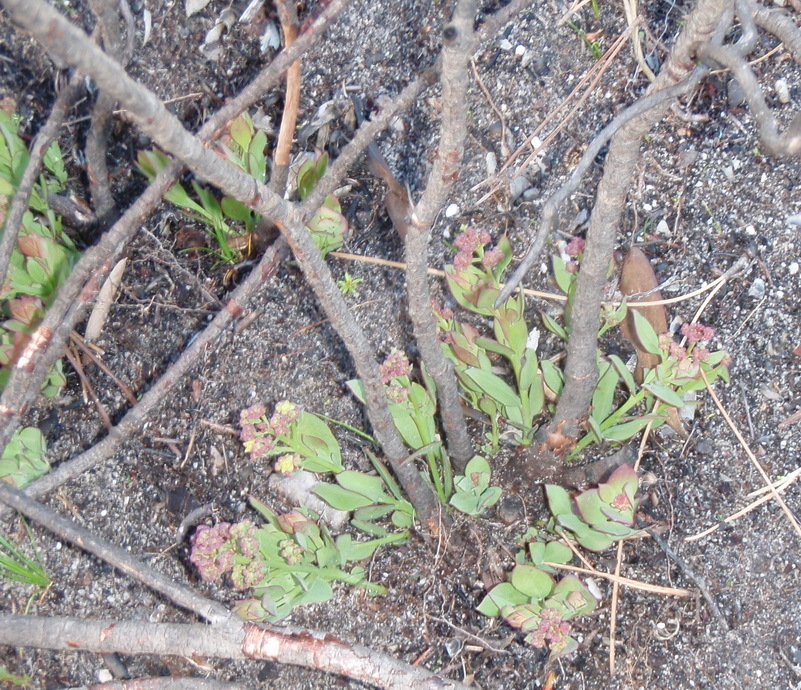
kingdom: Plantae
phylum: Tracheophyta
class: Magnoliopsida
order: Santalales
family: Santalaceae
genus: Osyris
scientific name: Osyris compressa
